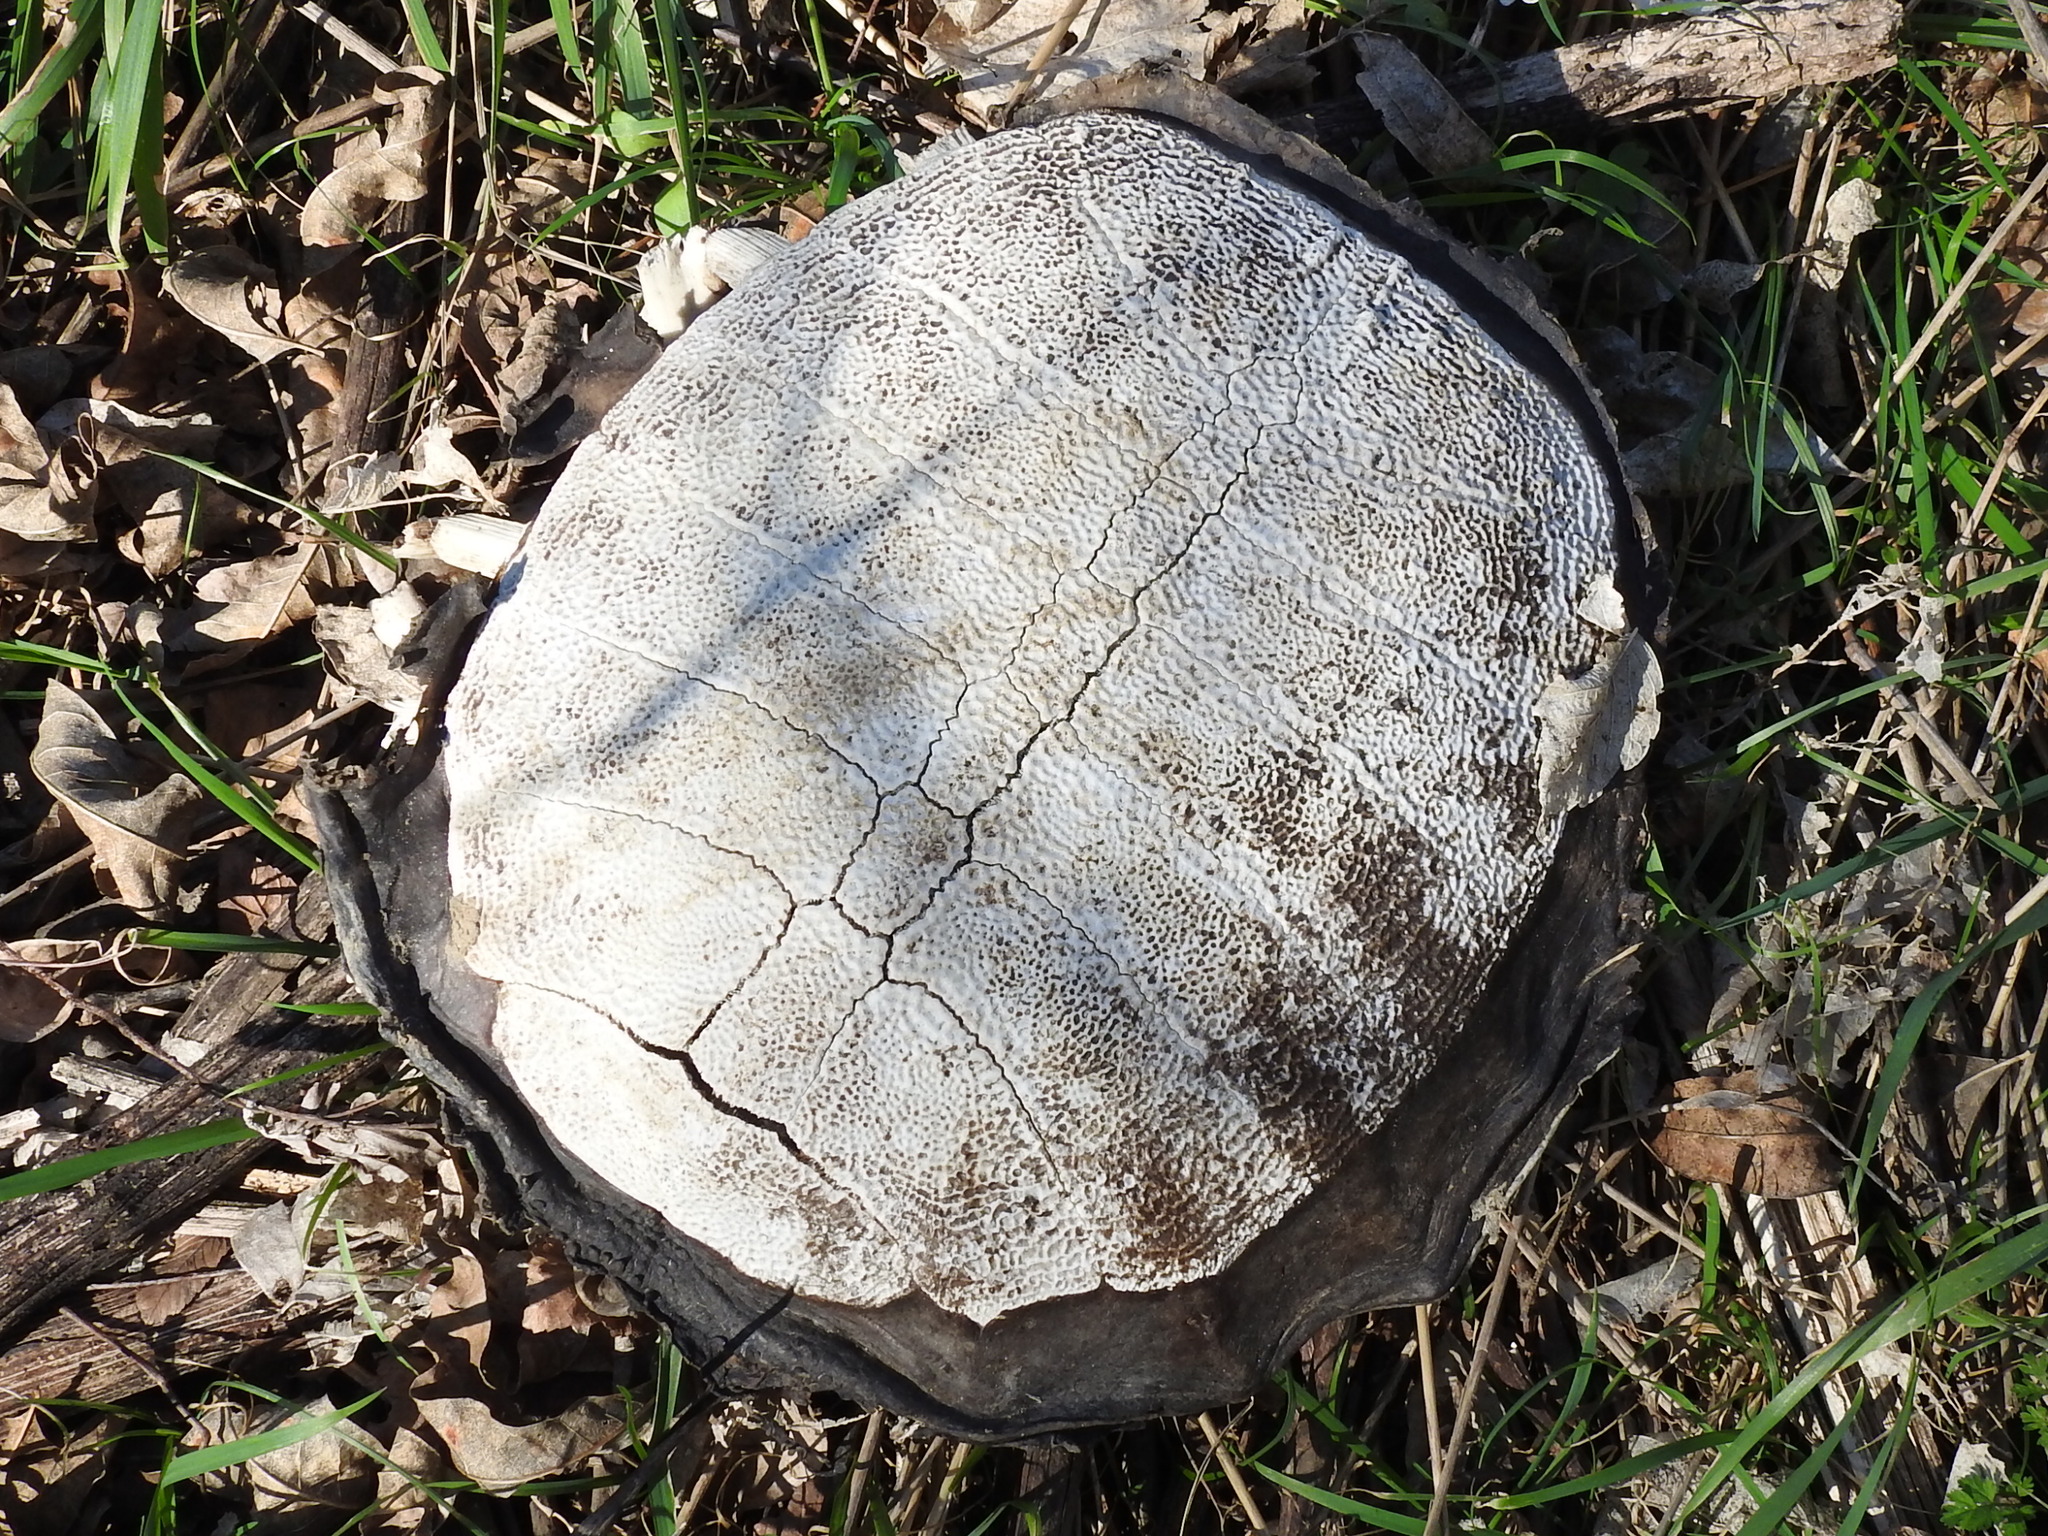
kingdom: Animalia
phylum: Chordata
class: Testudines
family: Trionychidae
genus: Apalone
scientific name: Apalone spinifera
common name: Spiny softshell turtle
